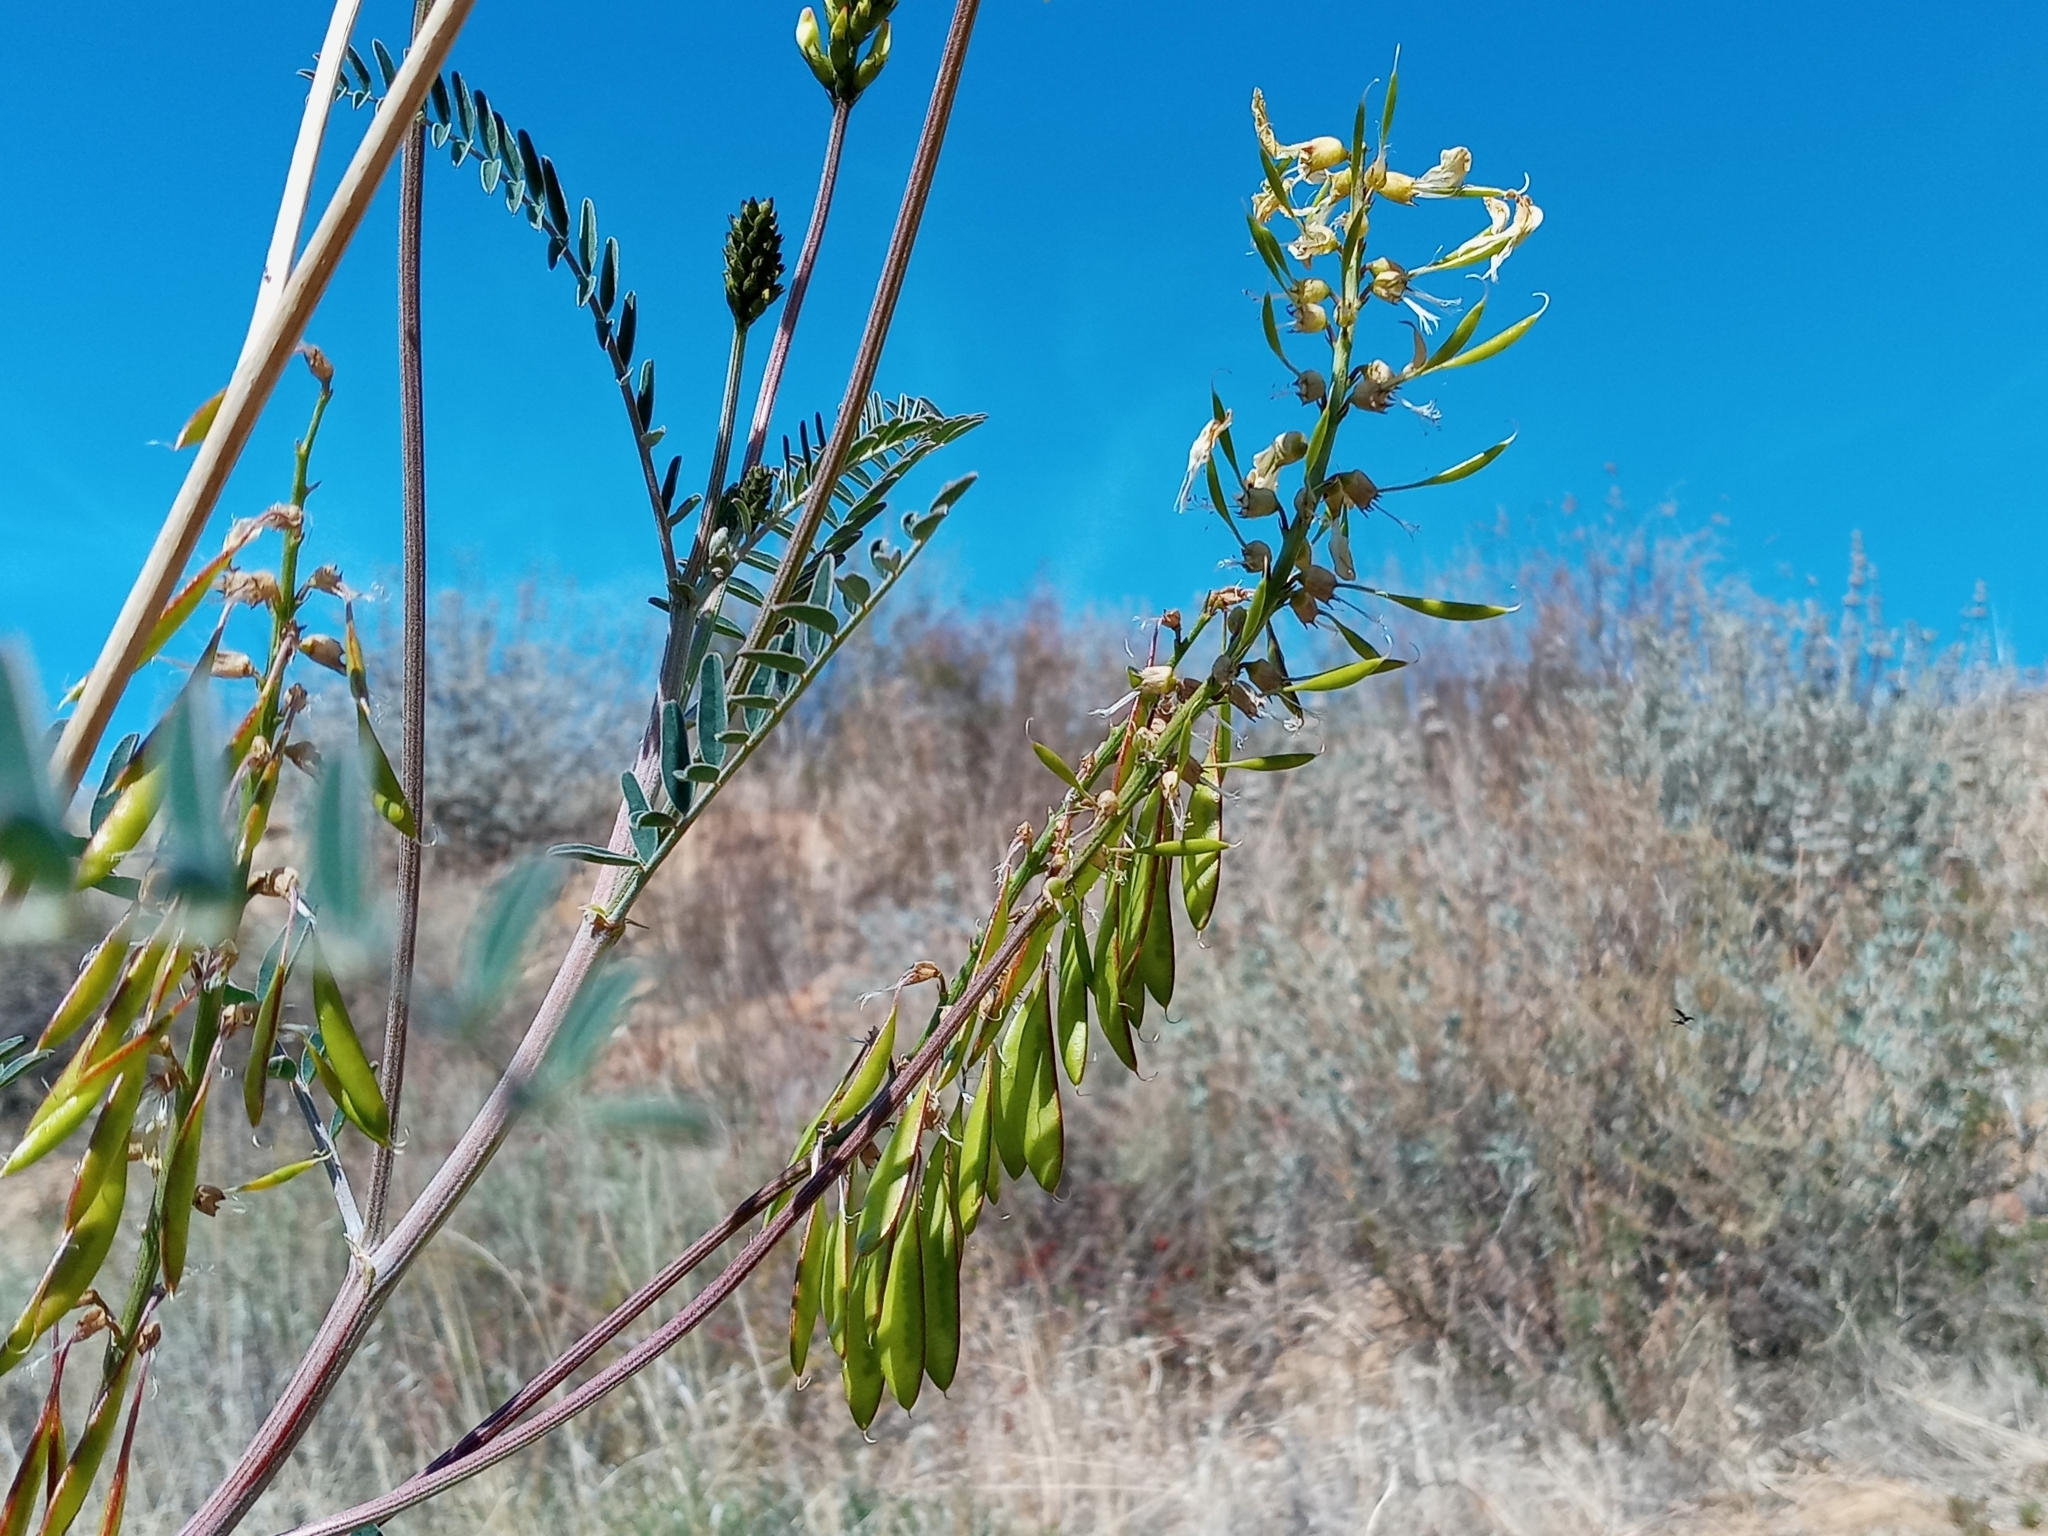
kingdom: Plantae
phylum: Tracheophyta
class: Magnoliopsida
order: Fabales
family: Fabaceae
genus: Astragalus
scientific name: Astragalus trichopodus
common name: Santa barbara milk-vetch
